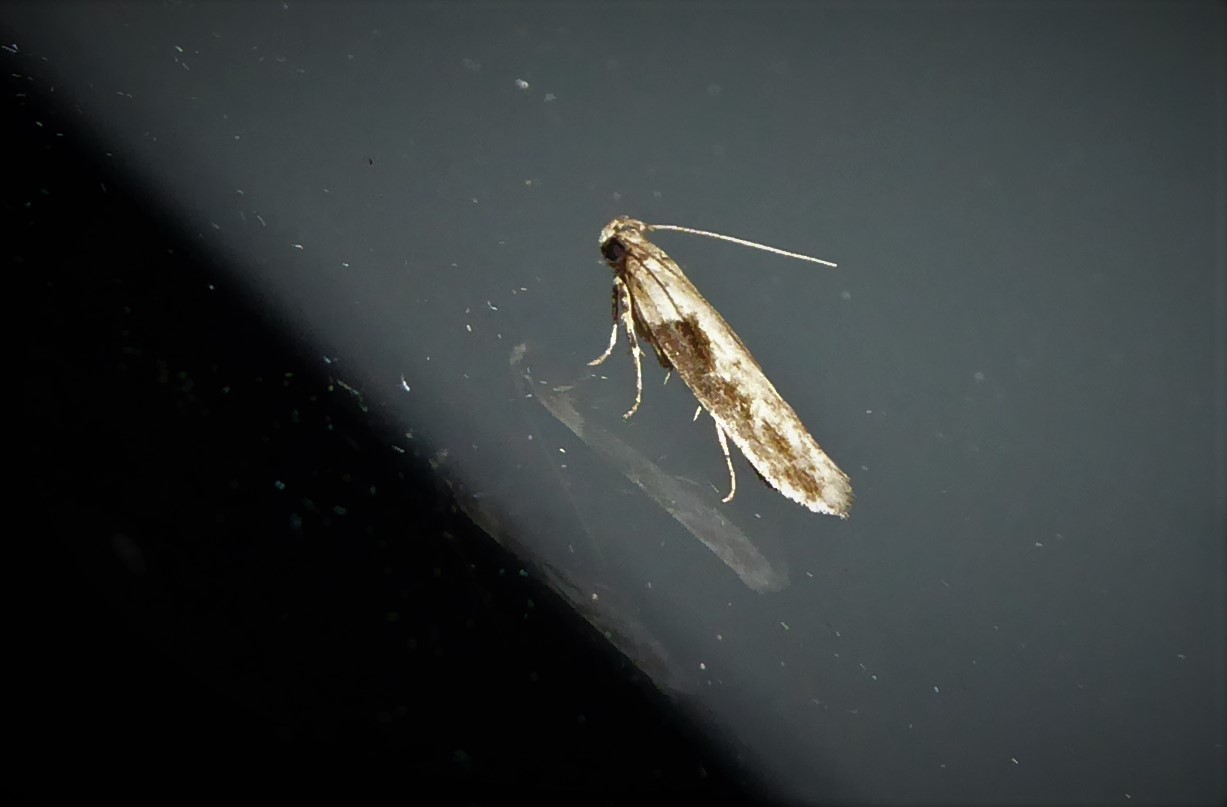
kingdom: Animalia
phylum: Arthropoda
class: Insecta
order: Lepidoptera
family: Gelechiidae
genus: Symmetrischema
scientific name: Symmetrischema tangolias
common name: Moth
